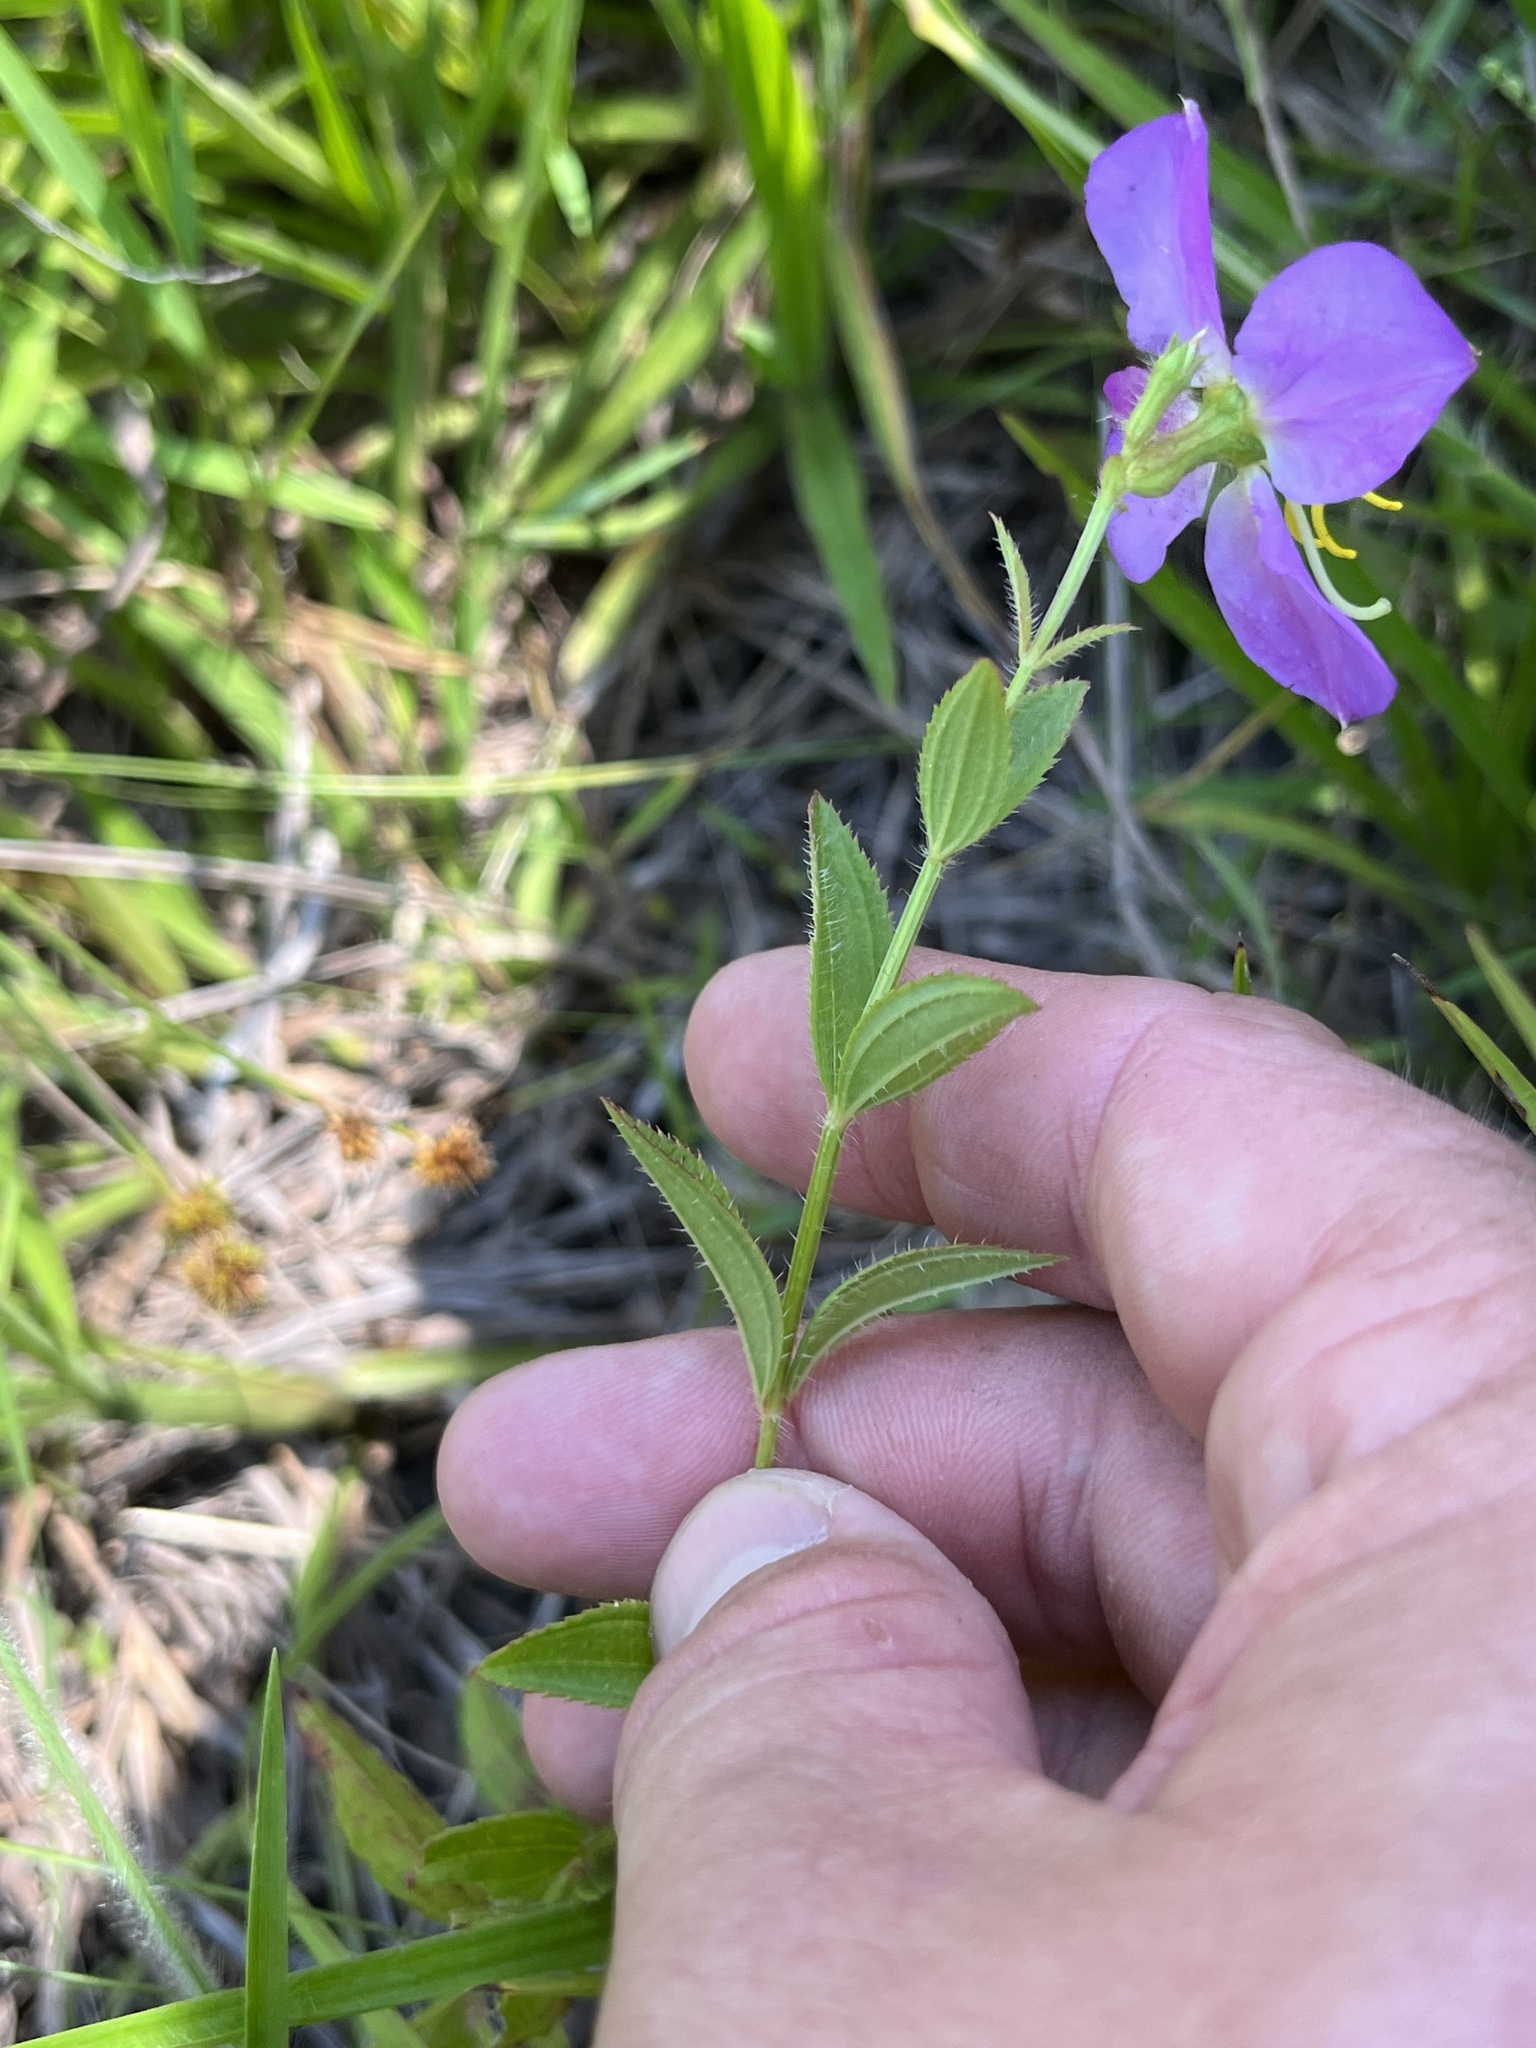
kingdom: Plantae
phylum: Tracheophyta
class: Magnoliopsida
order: Myrtales
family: Melastomataceae
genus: Rhexia
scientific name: Rhexia virginica
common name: Common meadow beauty
